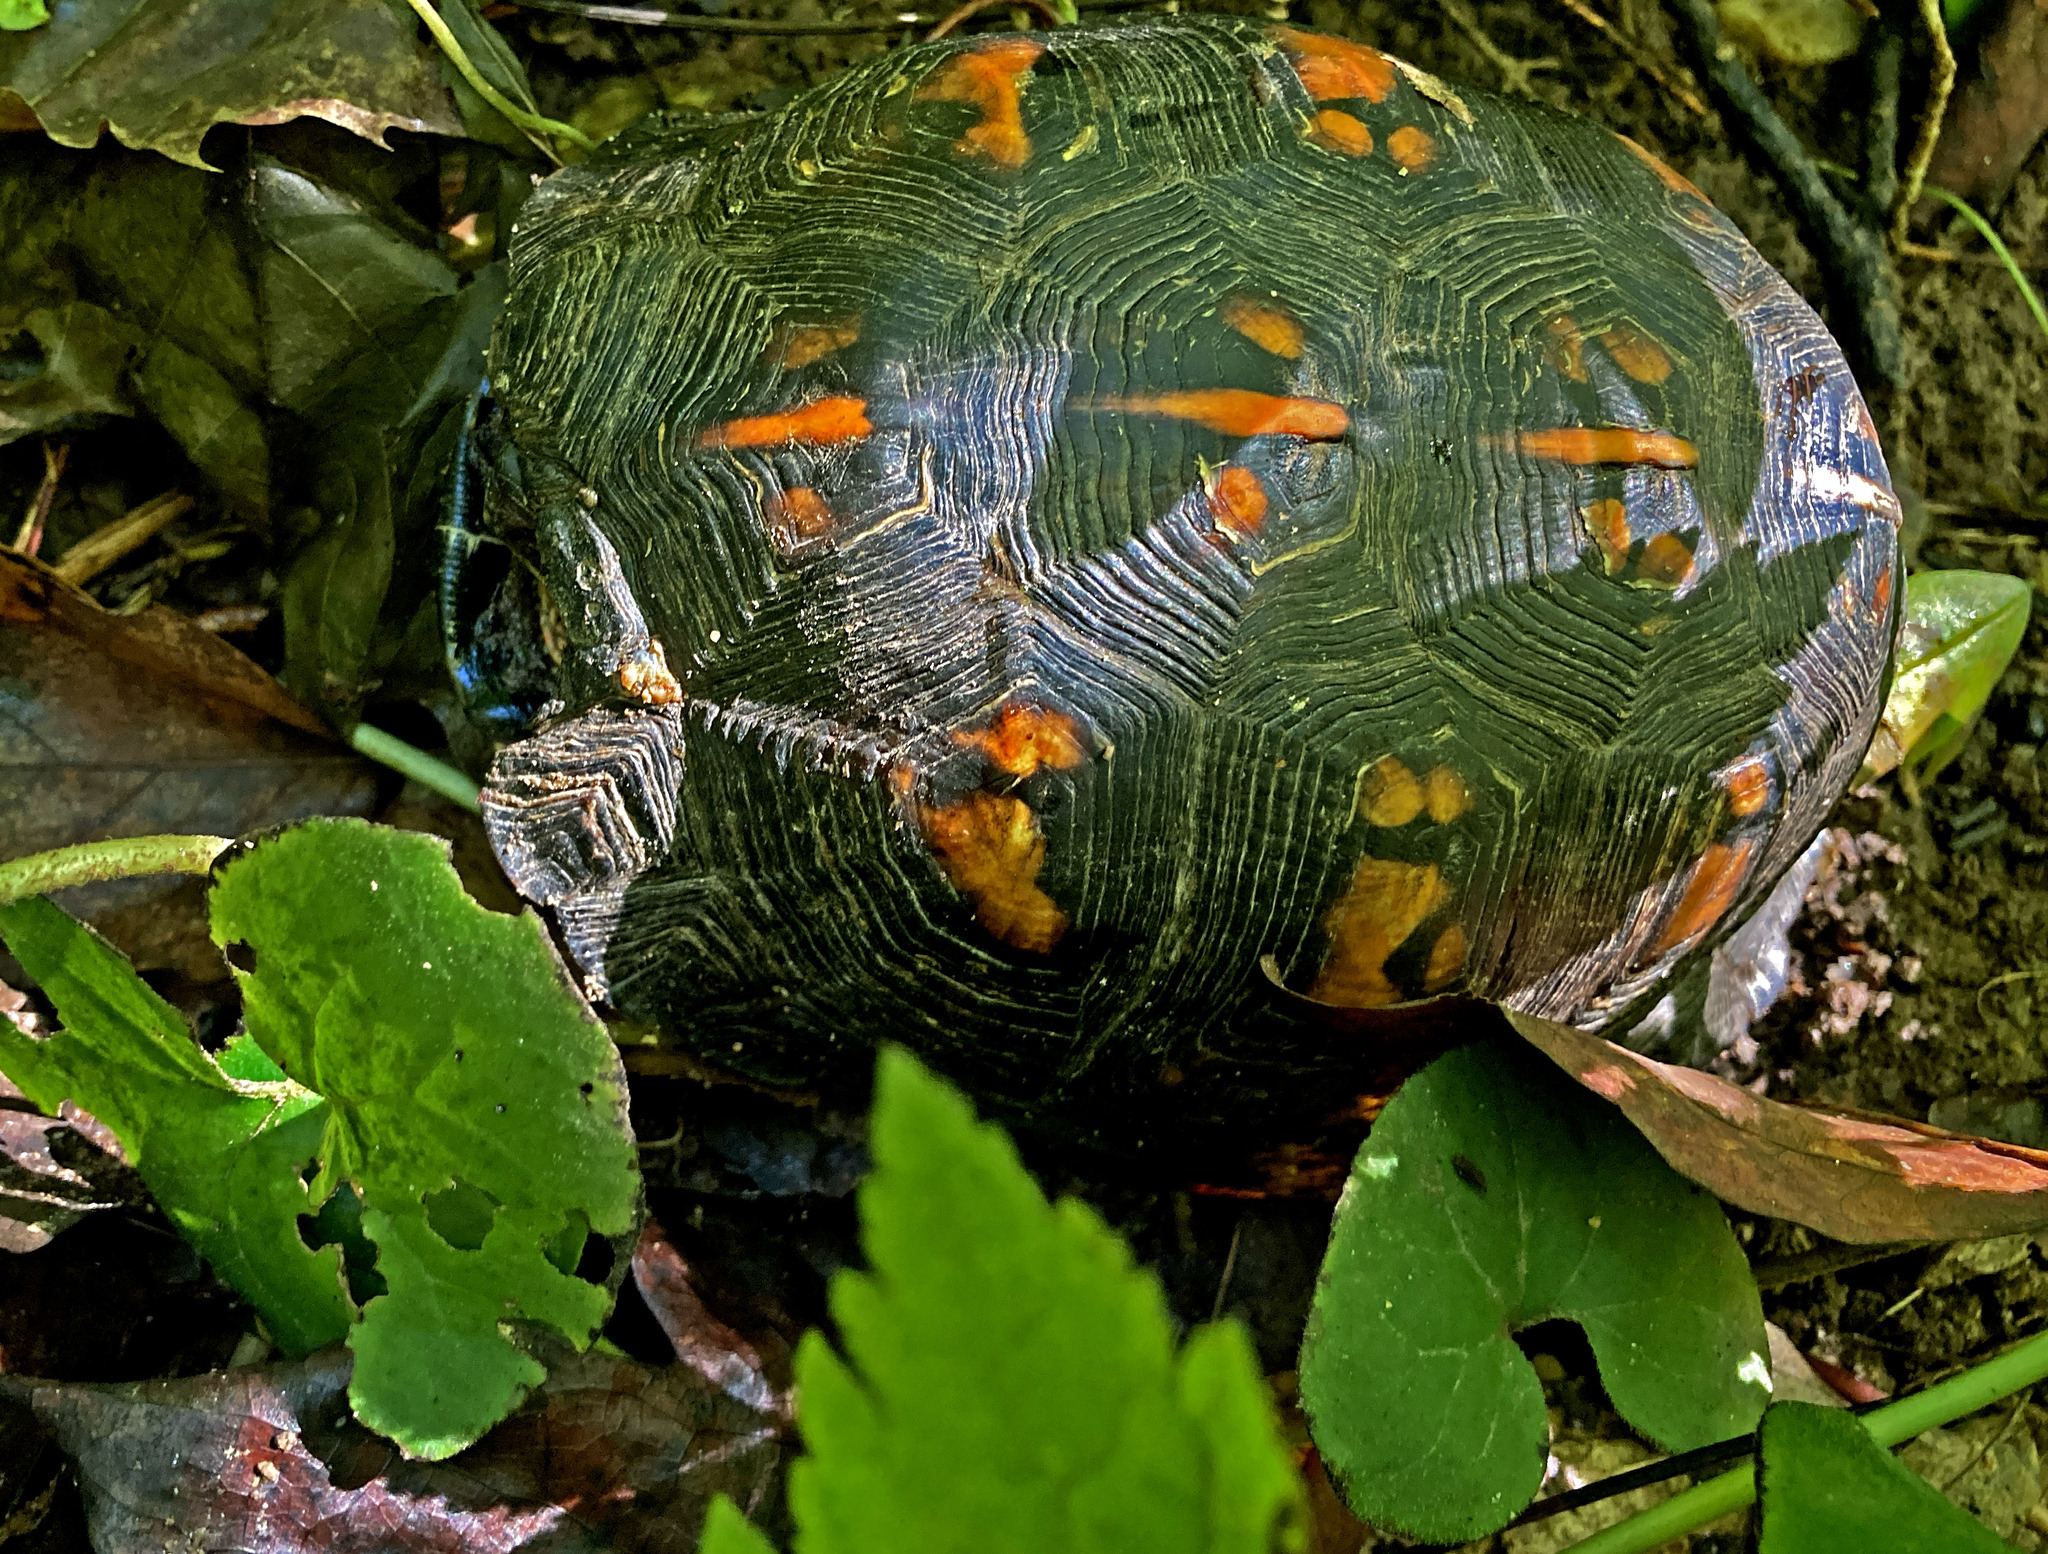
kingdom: Animalia
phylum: Chordata
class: Testudines
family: Emydidae
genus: Terrapene
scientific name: Terrapene carolina
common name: Common box turtle
